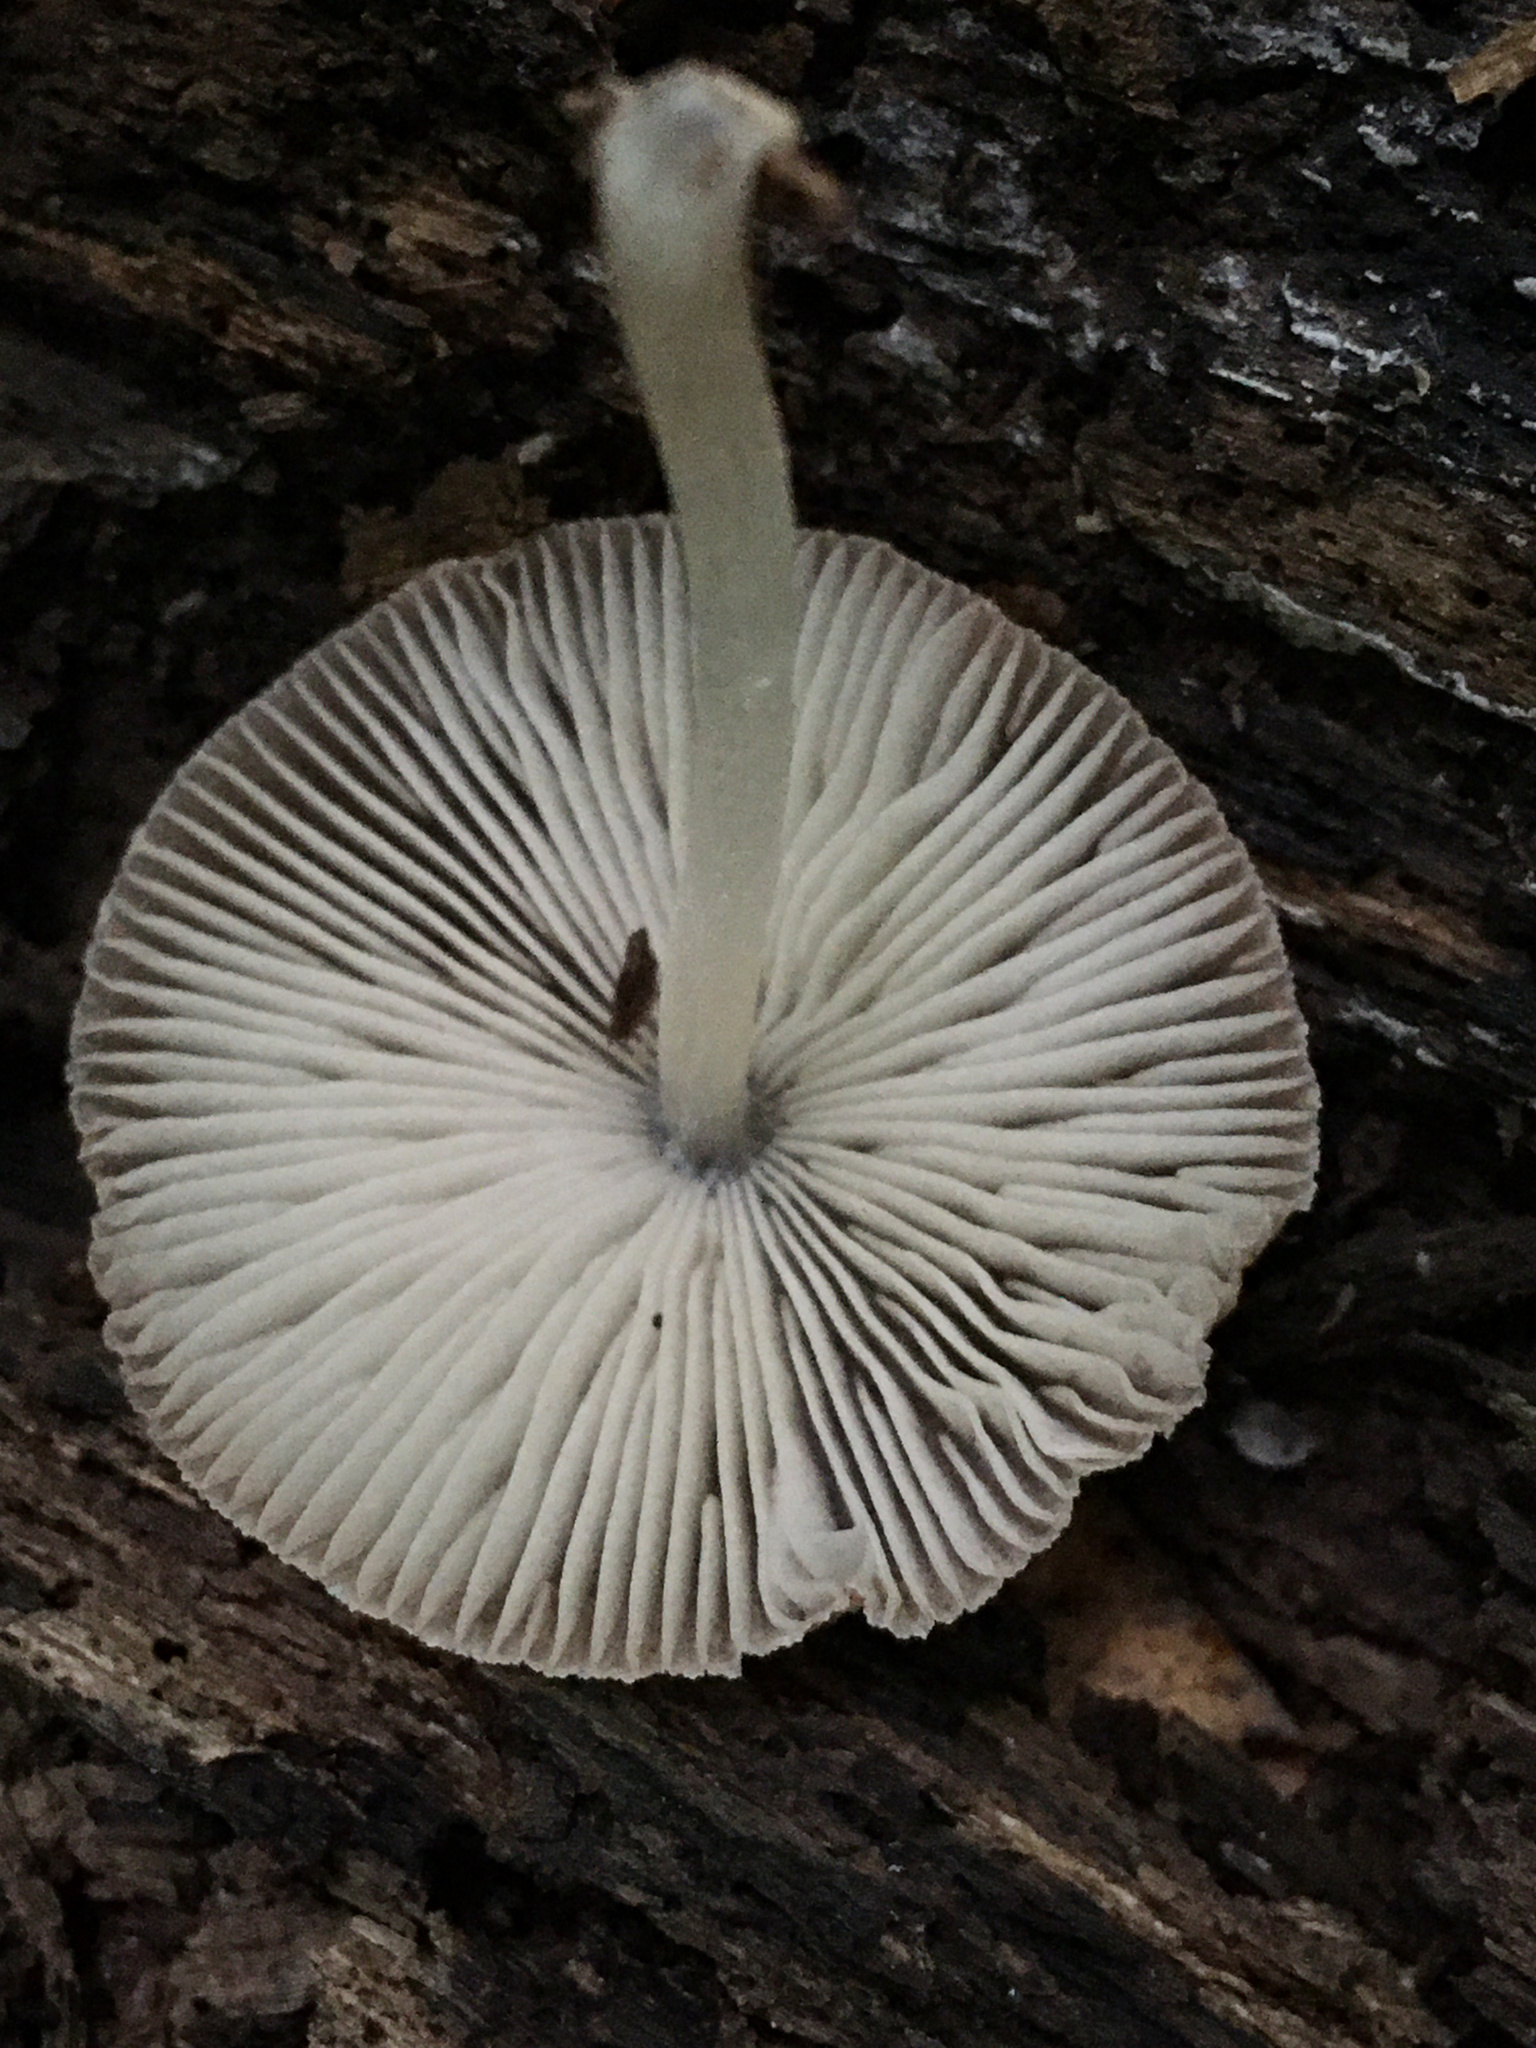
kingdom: Fungi
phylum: Basidiomycota
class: Agaricomycetes
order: Agaricales
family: Pluteaceae
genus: Pluteus
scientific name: Pluteus longistriatus
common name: Pleated pluteus
